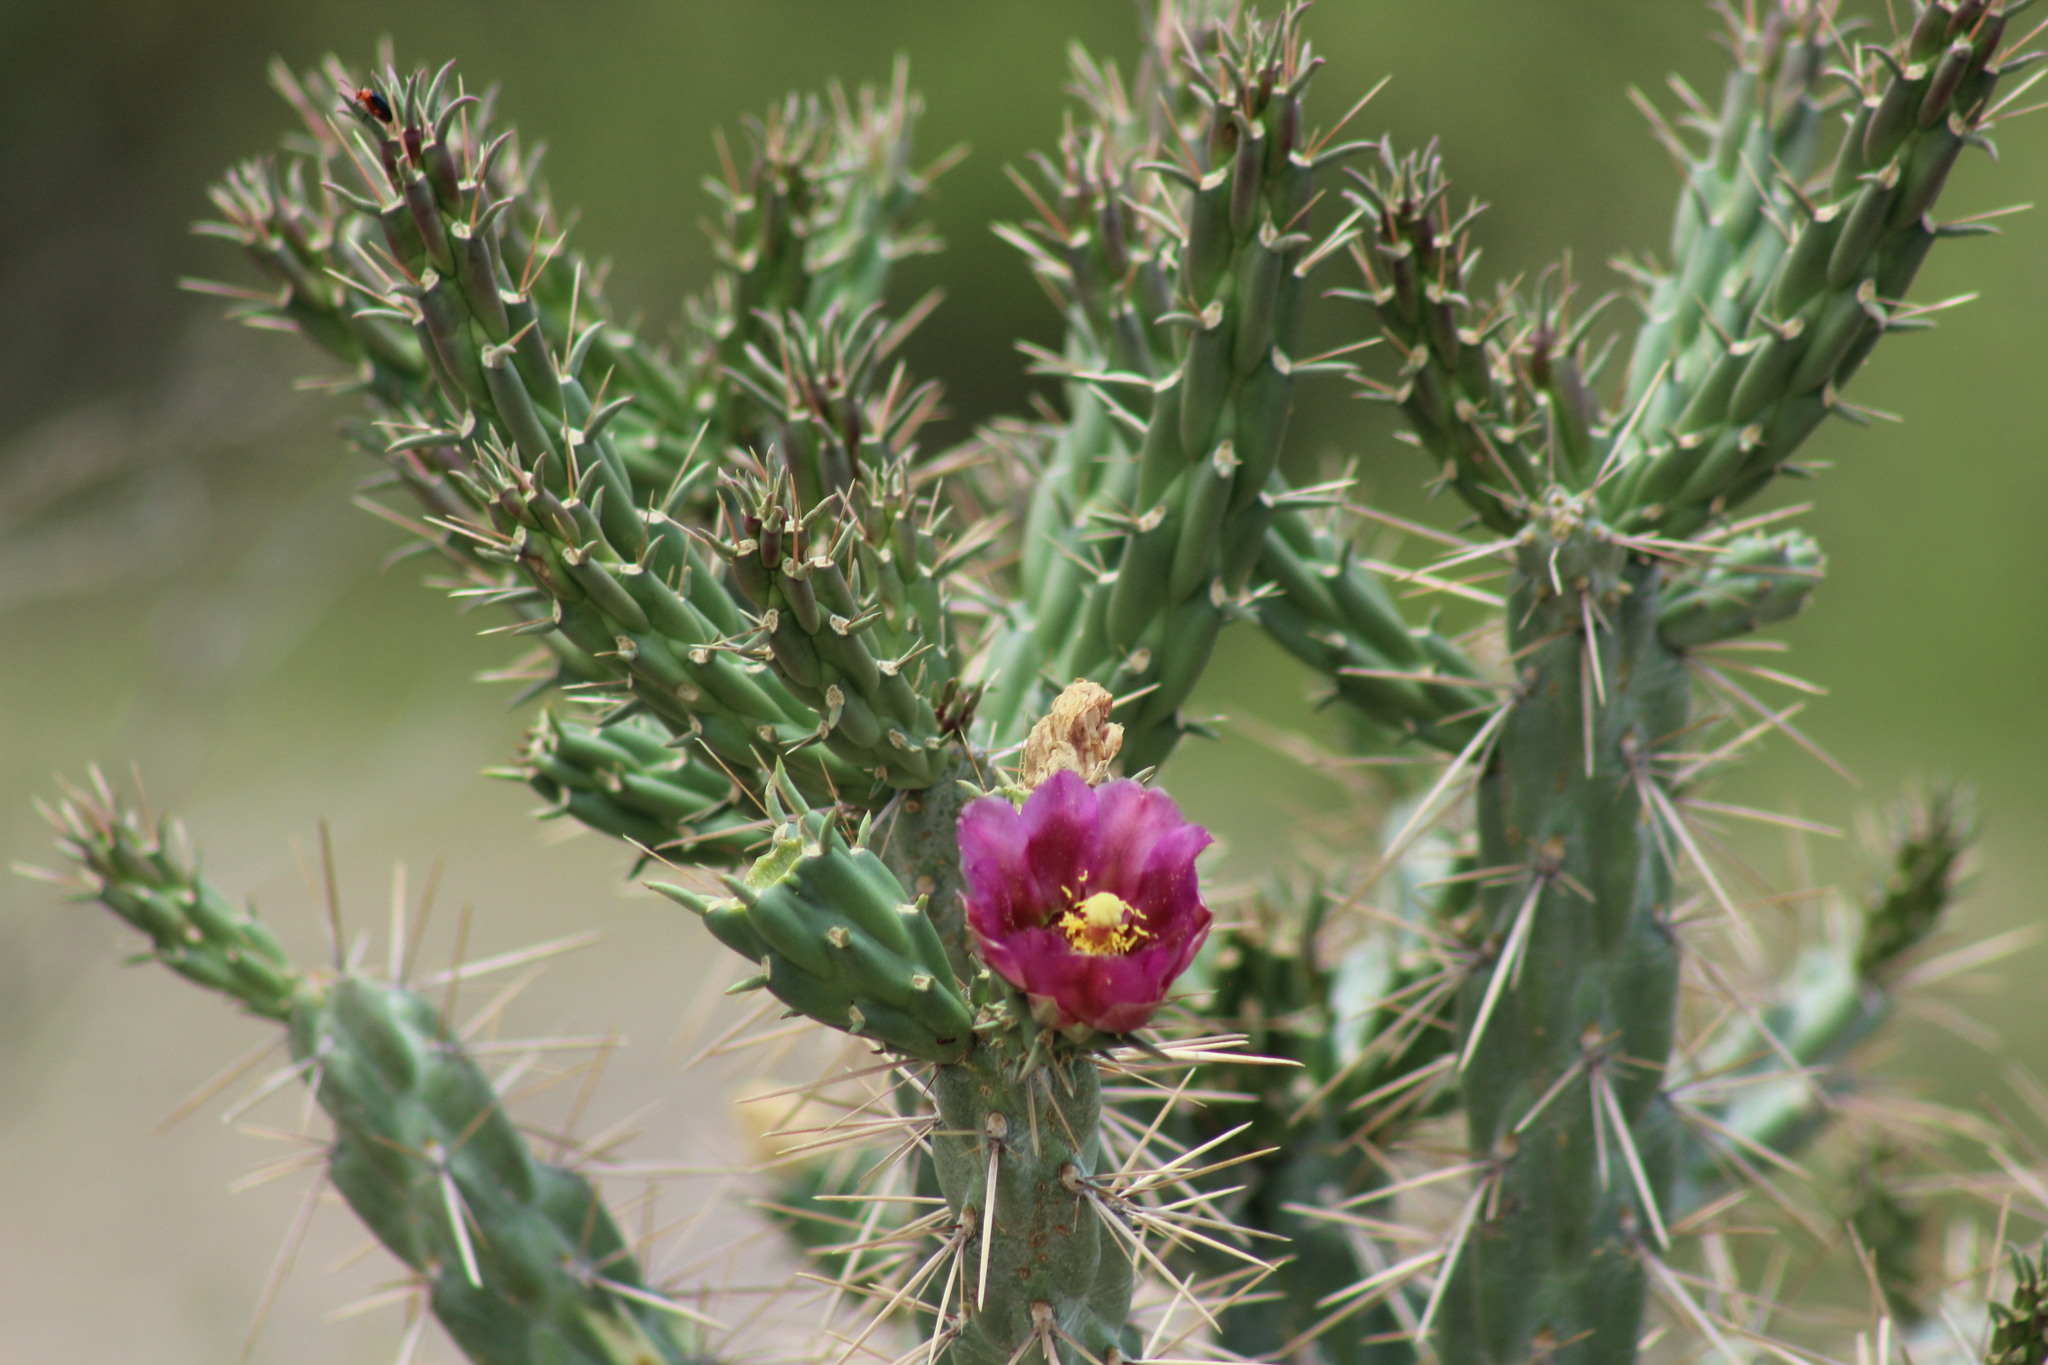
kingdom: Plantae
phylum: Tracheophyta
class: Magnoliopsida
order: Caryophyllales
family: Cactaceae
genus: Cylindropuntia
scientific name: Cylindropuntia imbricata
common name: Candelabrum cactus
